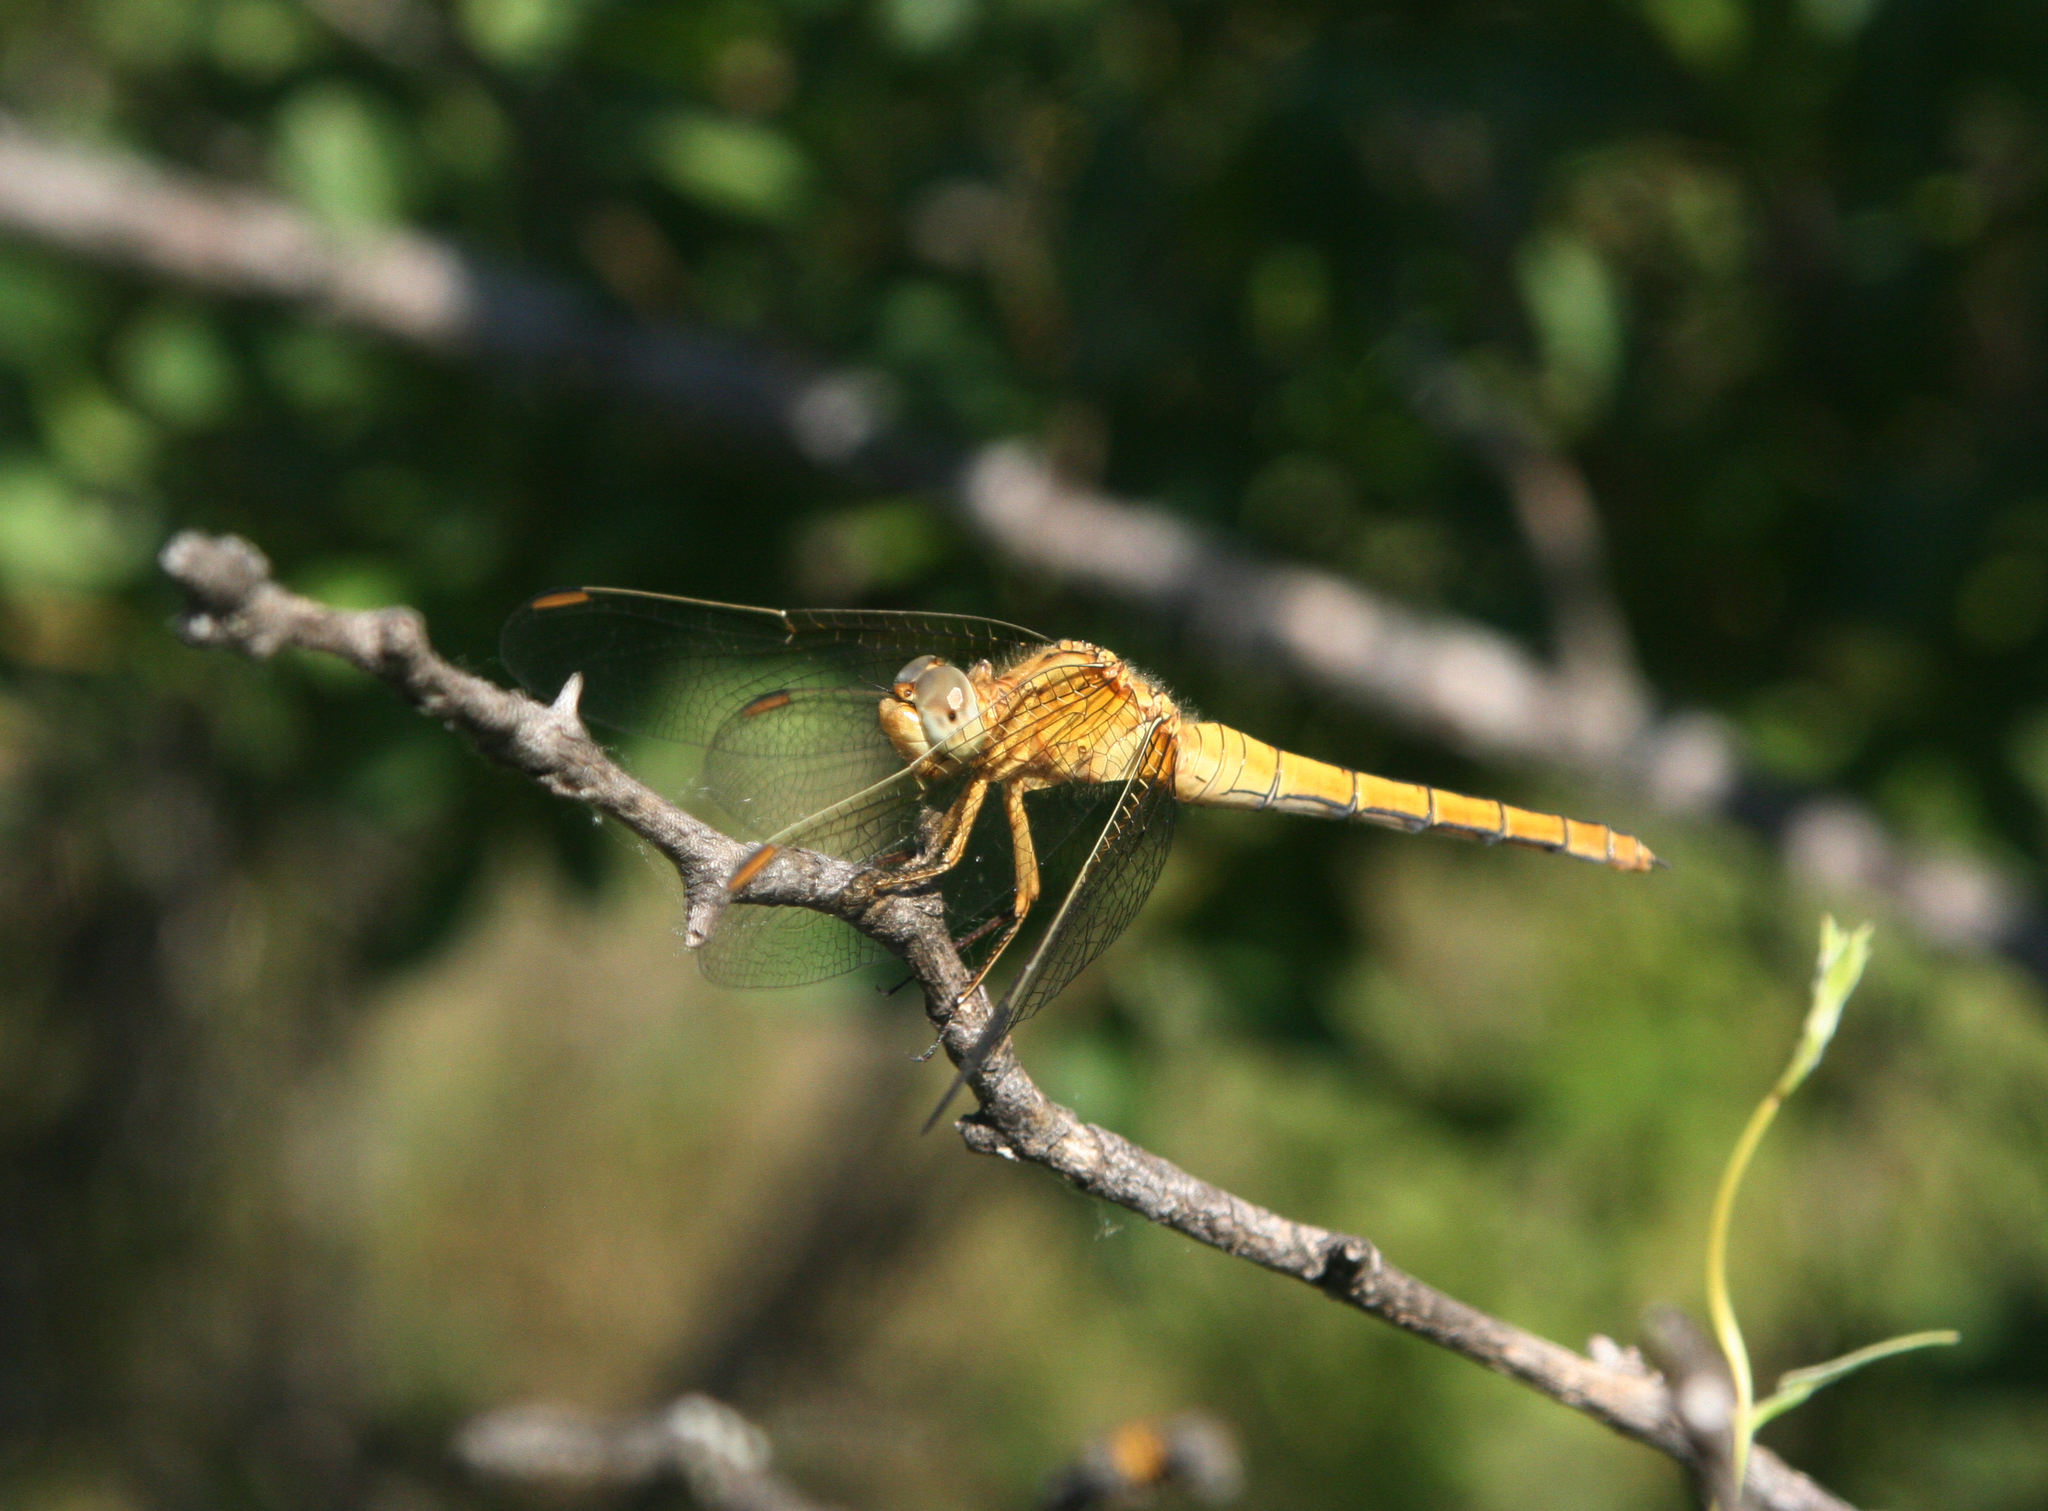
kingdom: Animalia
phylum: Arthropoda
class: Insecta
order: Odonata
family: Libellulidae
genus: Orthetrum
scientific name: Orthetrum coerulescens
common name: Keeled skimmer
